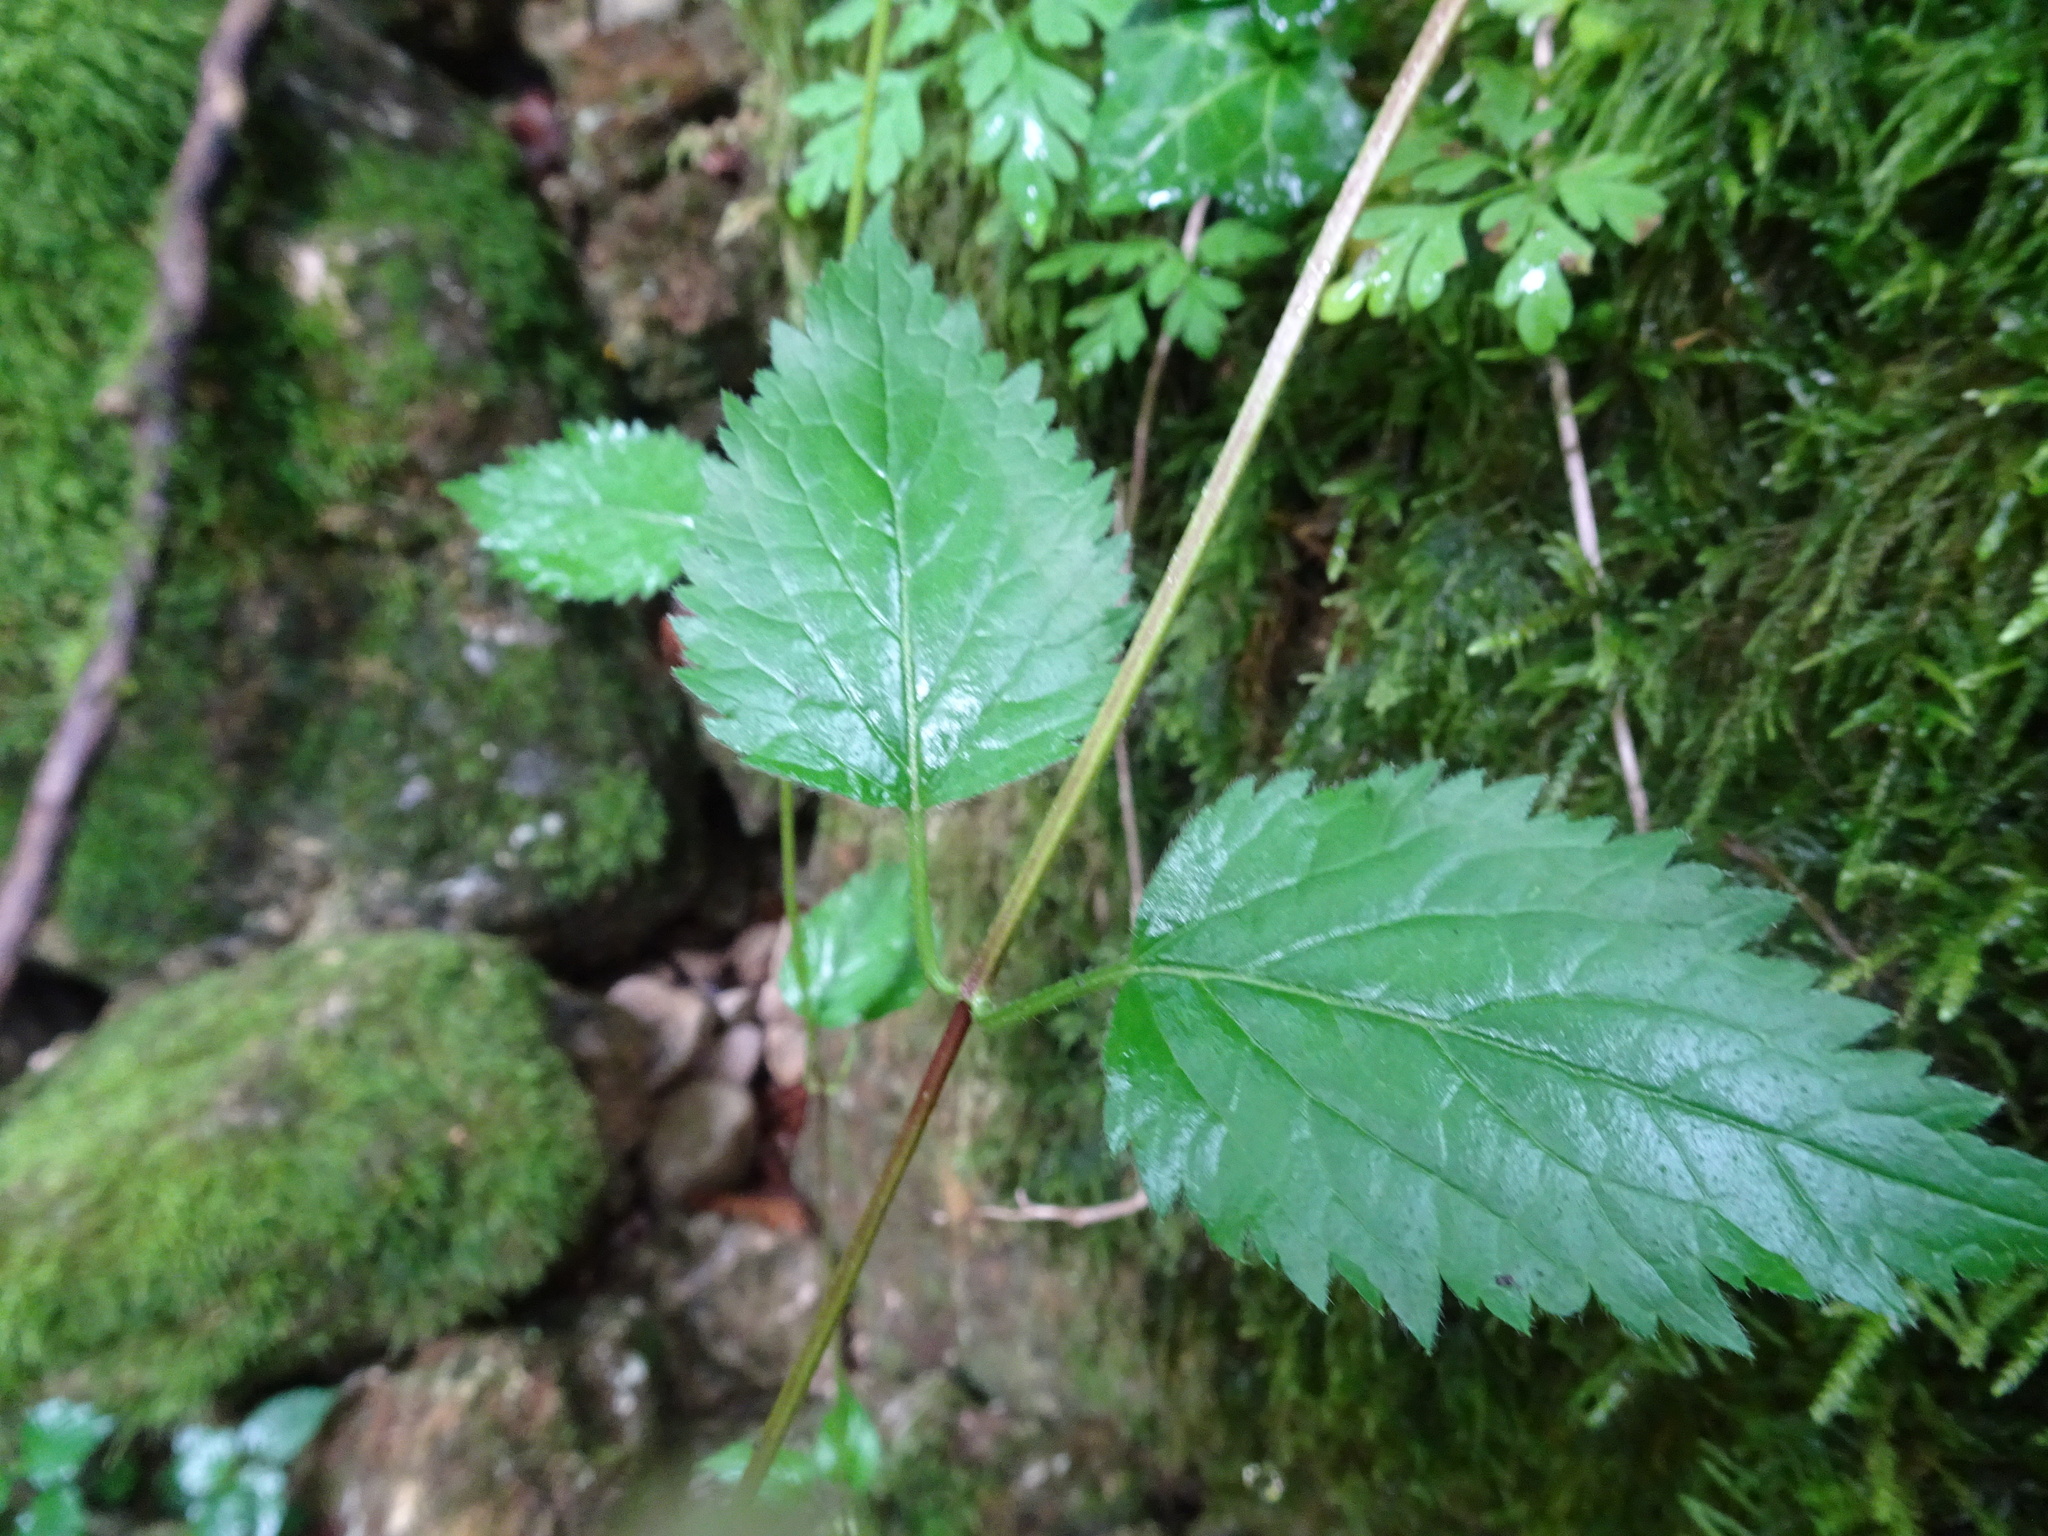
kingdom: Plantae
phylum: Tracheophyta
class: Magnoliopsida
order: Lamiales
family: Lamiaceae
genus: Lamium
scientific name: Lamium galeobdolon
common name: Yellow archangel
